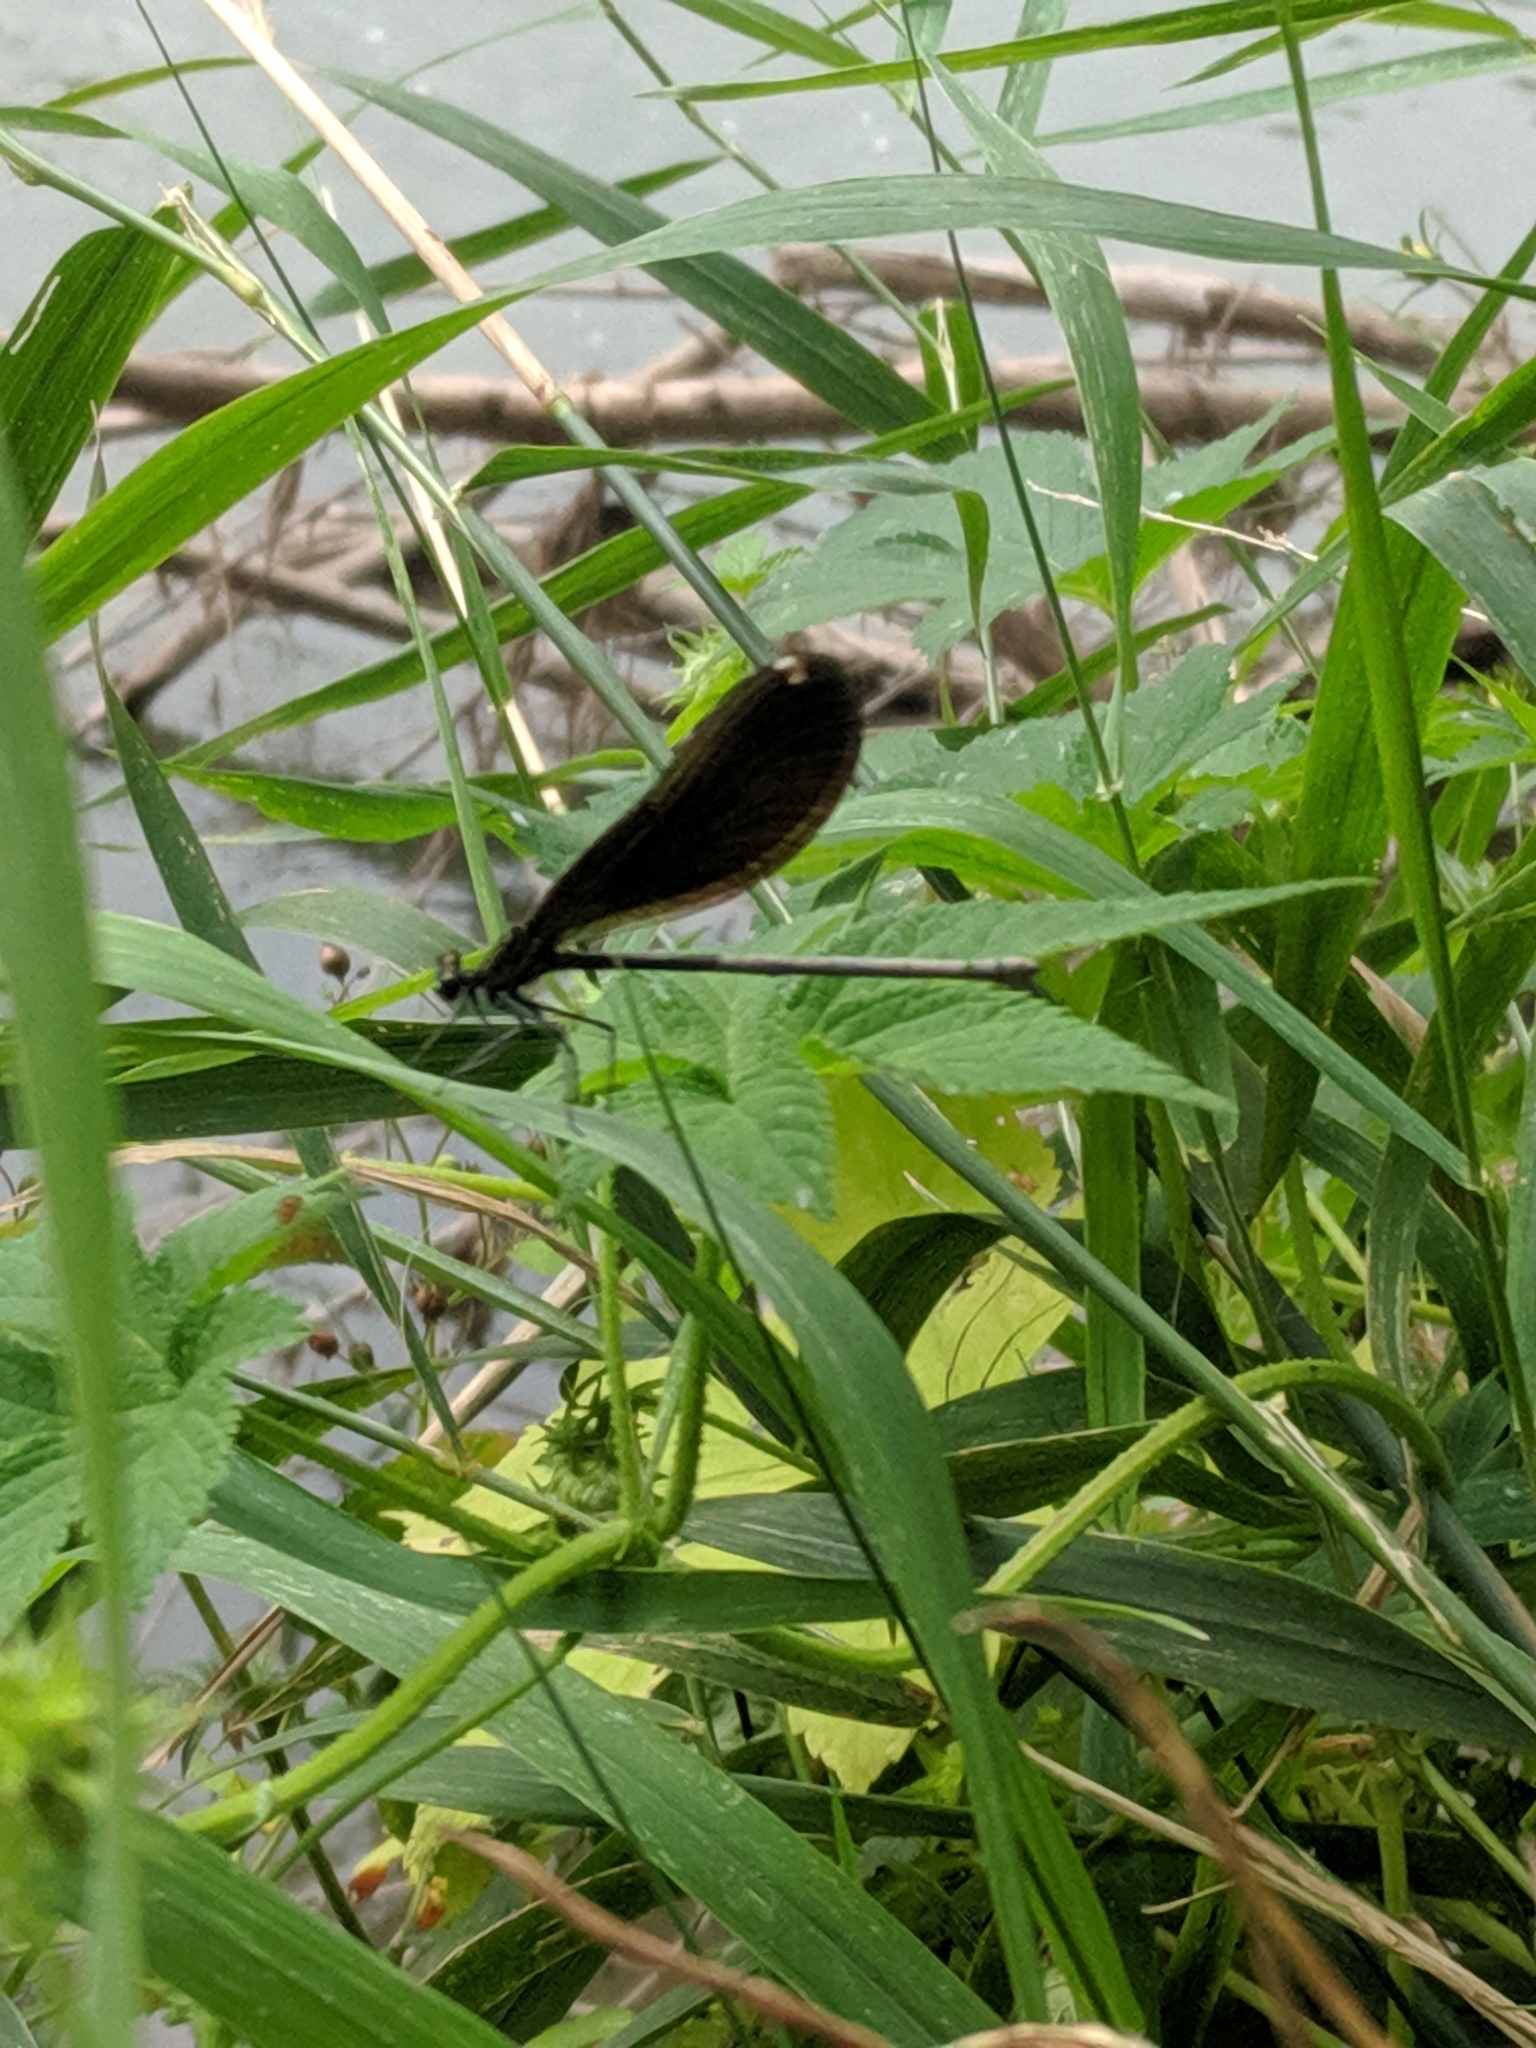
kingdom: Animalia
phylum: Arthropoda
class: Insecta
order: Odonata
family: Calopterygidae
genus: Calopteryx
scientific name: Calopteryx maculata
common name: Ebony jewelwing
